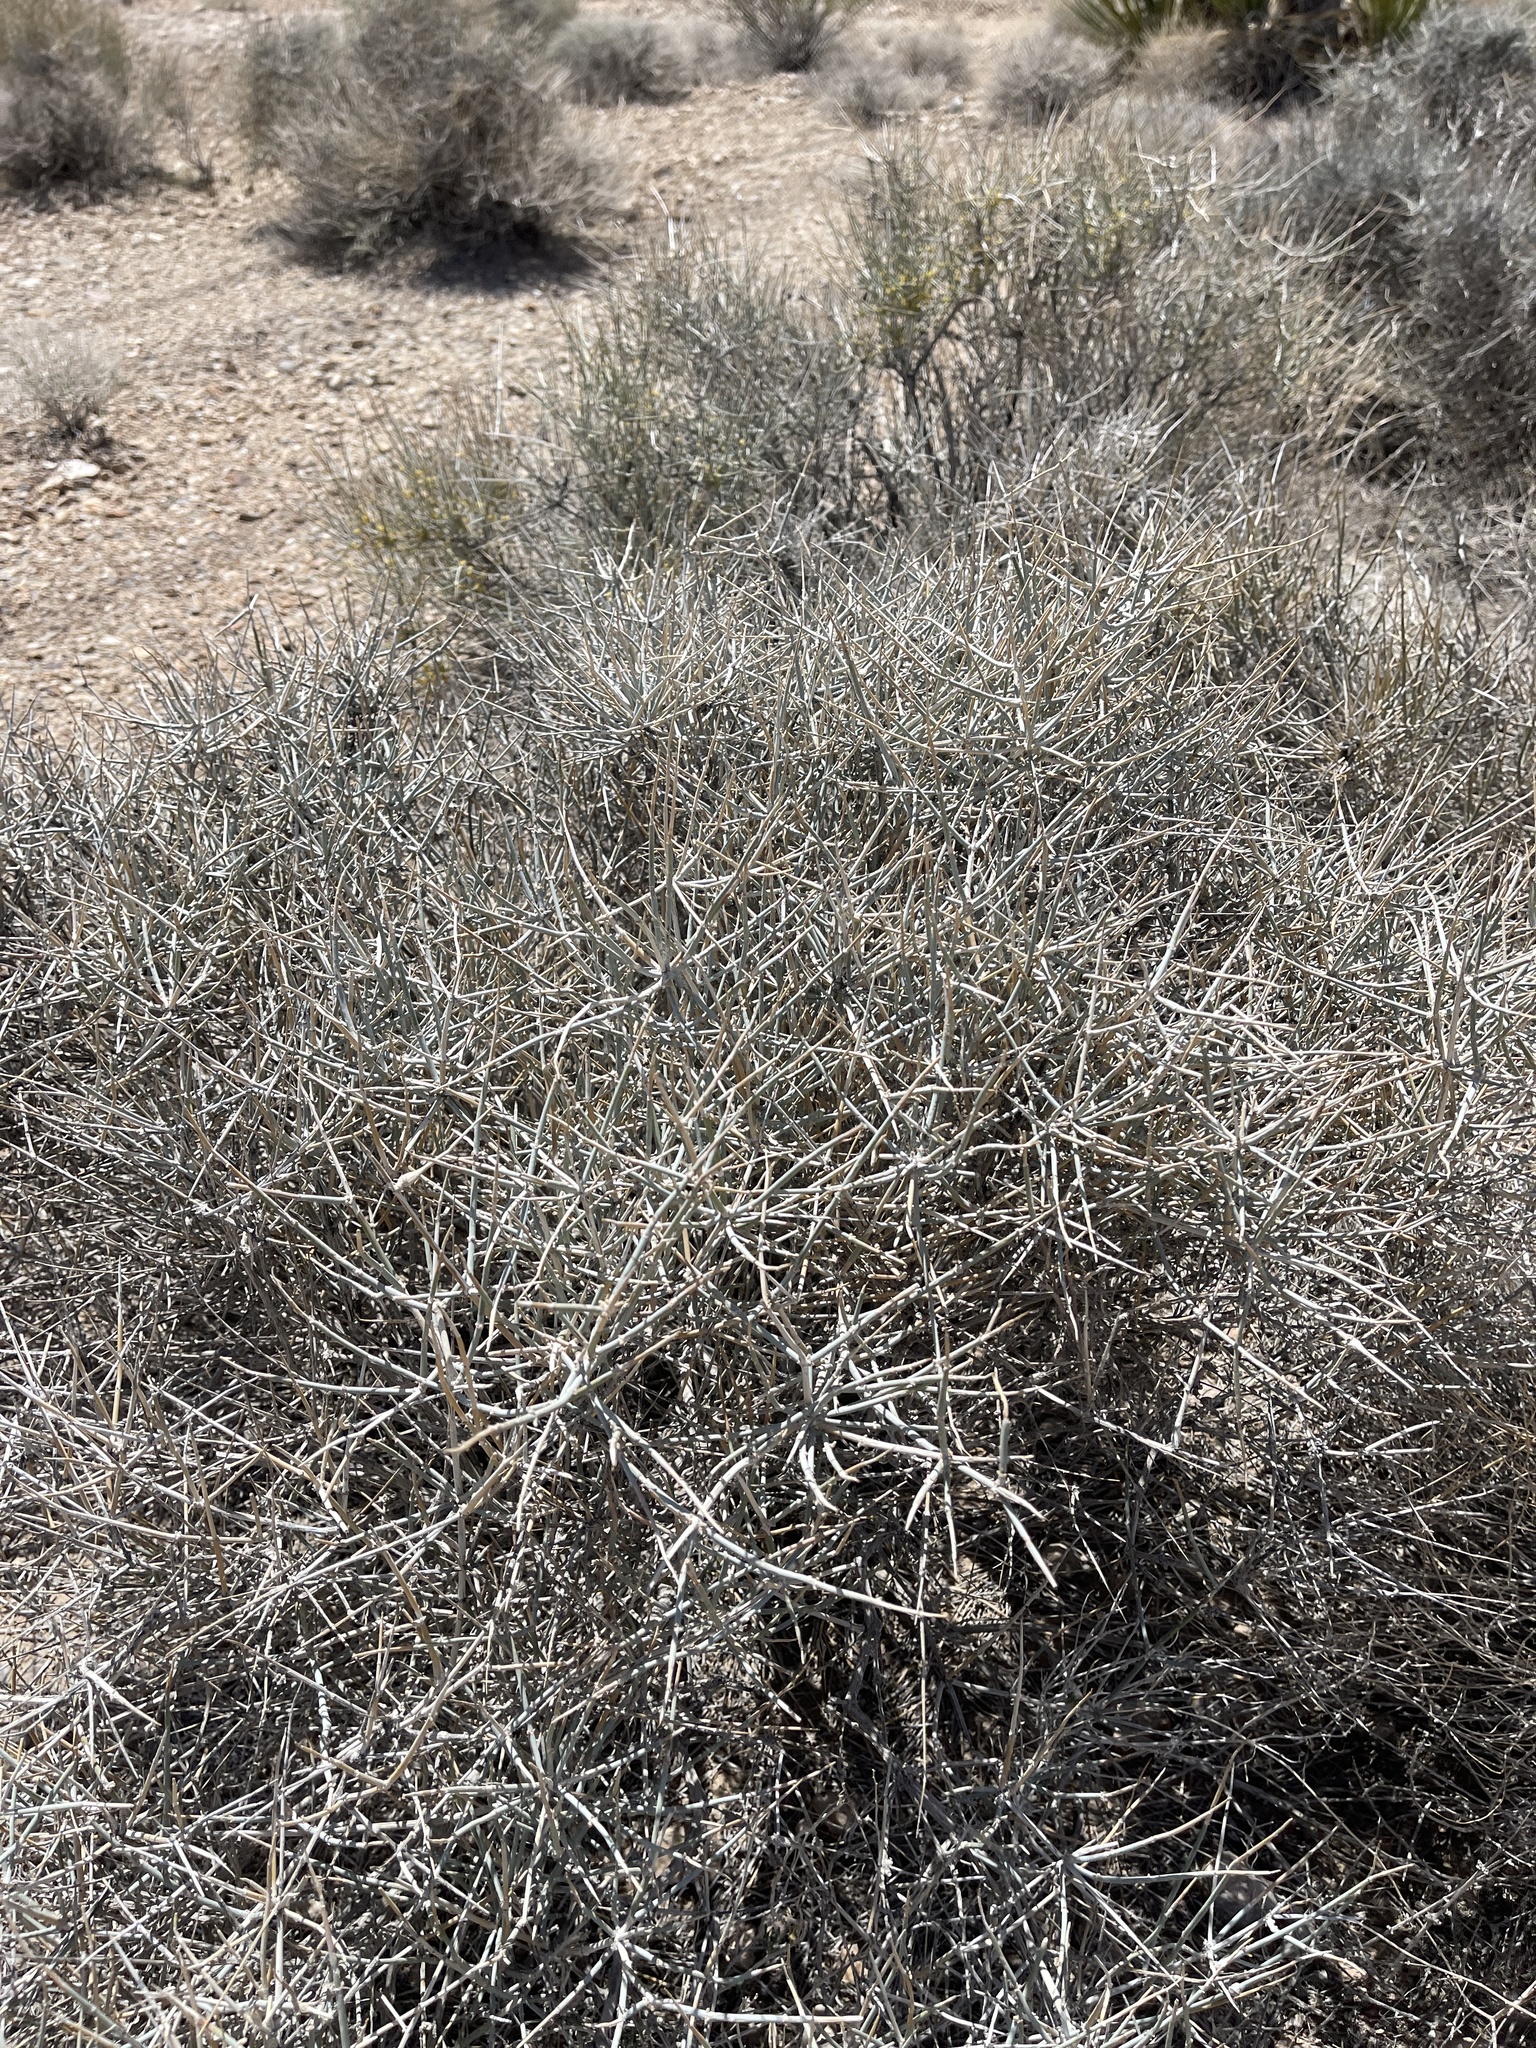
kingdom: Plantae
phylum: Tracheophyta
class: Gnetopsida
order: Ephedrales
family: Ephedraceae
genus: Ephedra
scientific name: Ephedra nevadensis
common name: Gray ephedra
